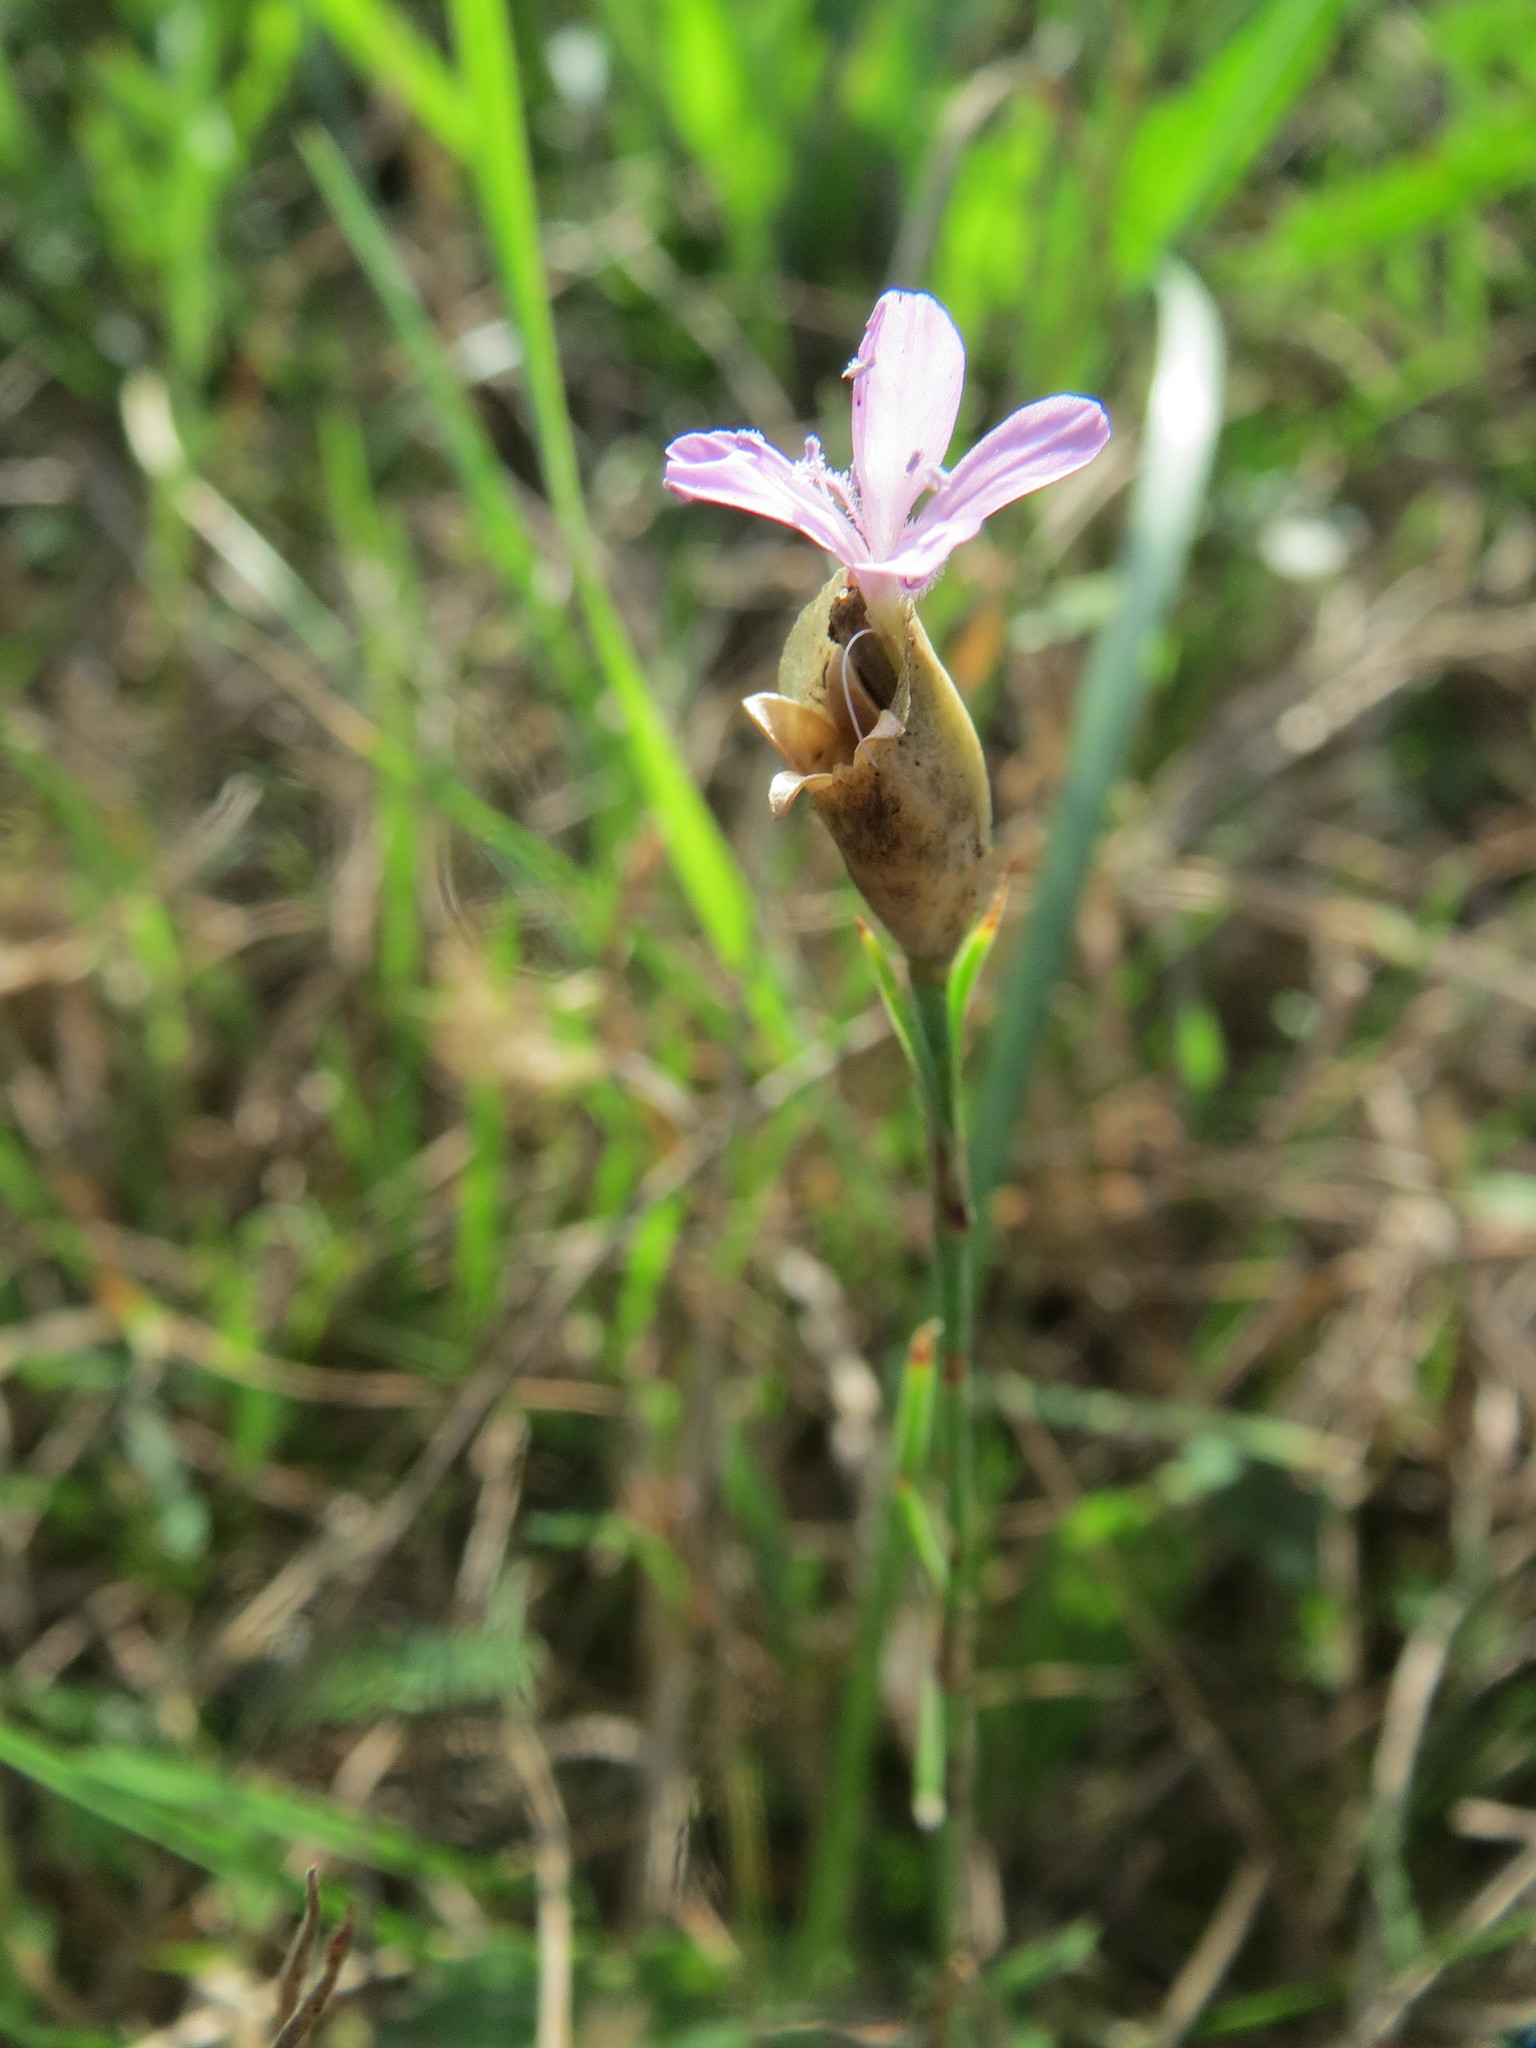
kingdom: Plantae
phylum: Tracheophyta
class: Magnoliopsida
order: Caryophyllales
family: Caryophyllaceae
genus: Petrorhagia
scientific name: Petrorhagia prolifera
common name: Proliferous pink
